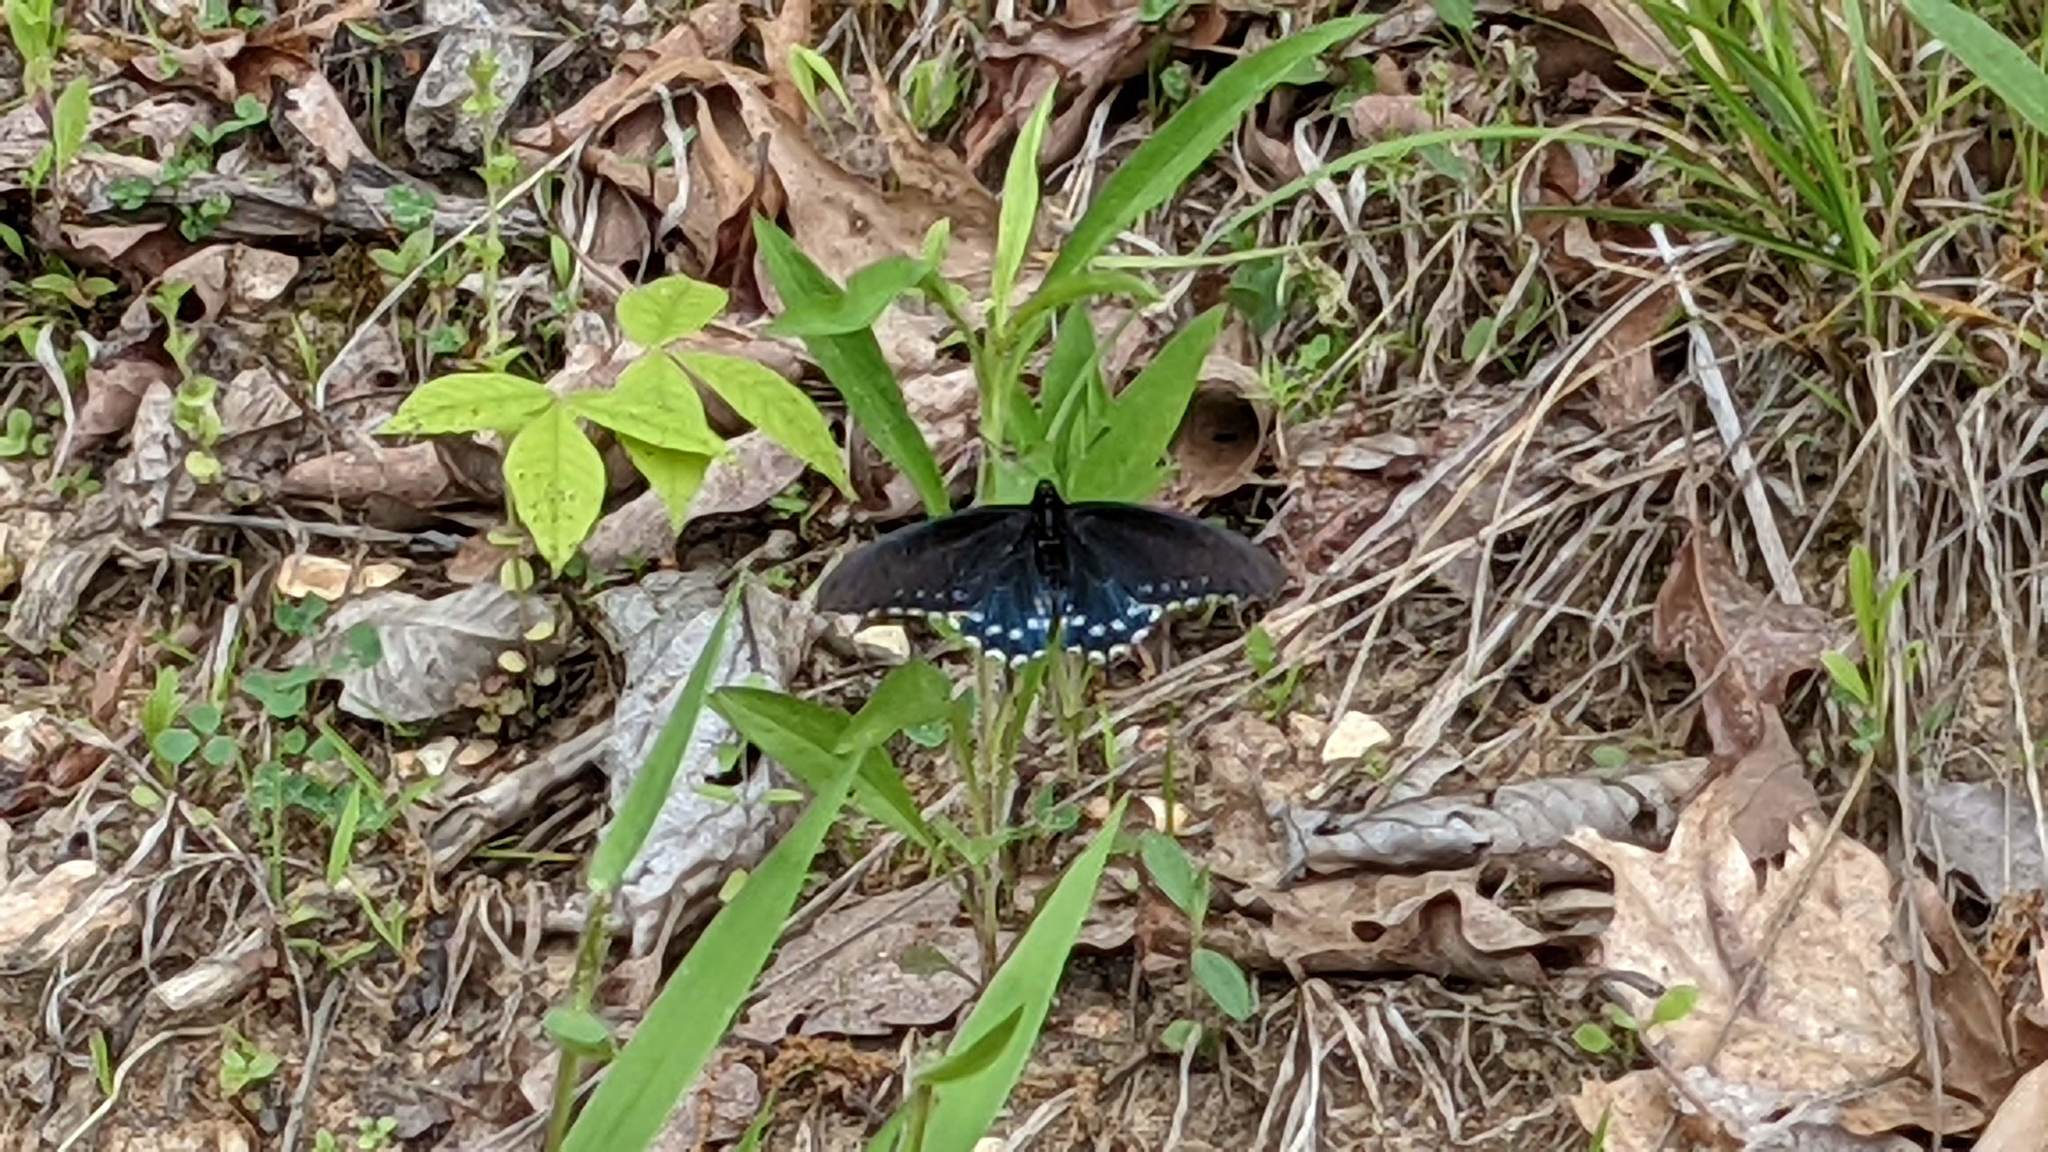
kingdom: Animalia
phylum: Arthropoda
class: Insecta
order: Lepidoptera
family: Papilionidae
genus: Battus
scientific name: Battus philenor
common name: Pipevine swallowtail
